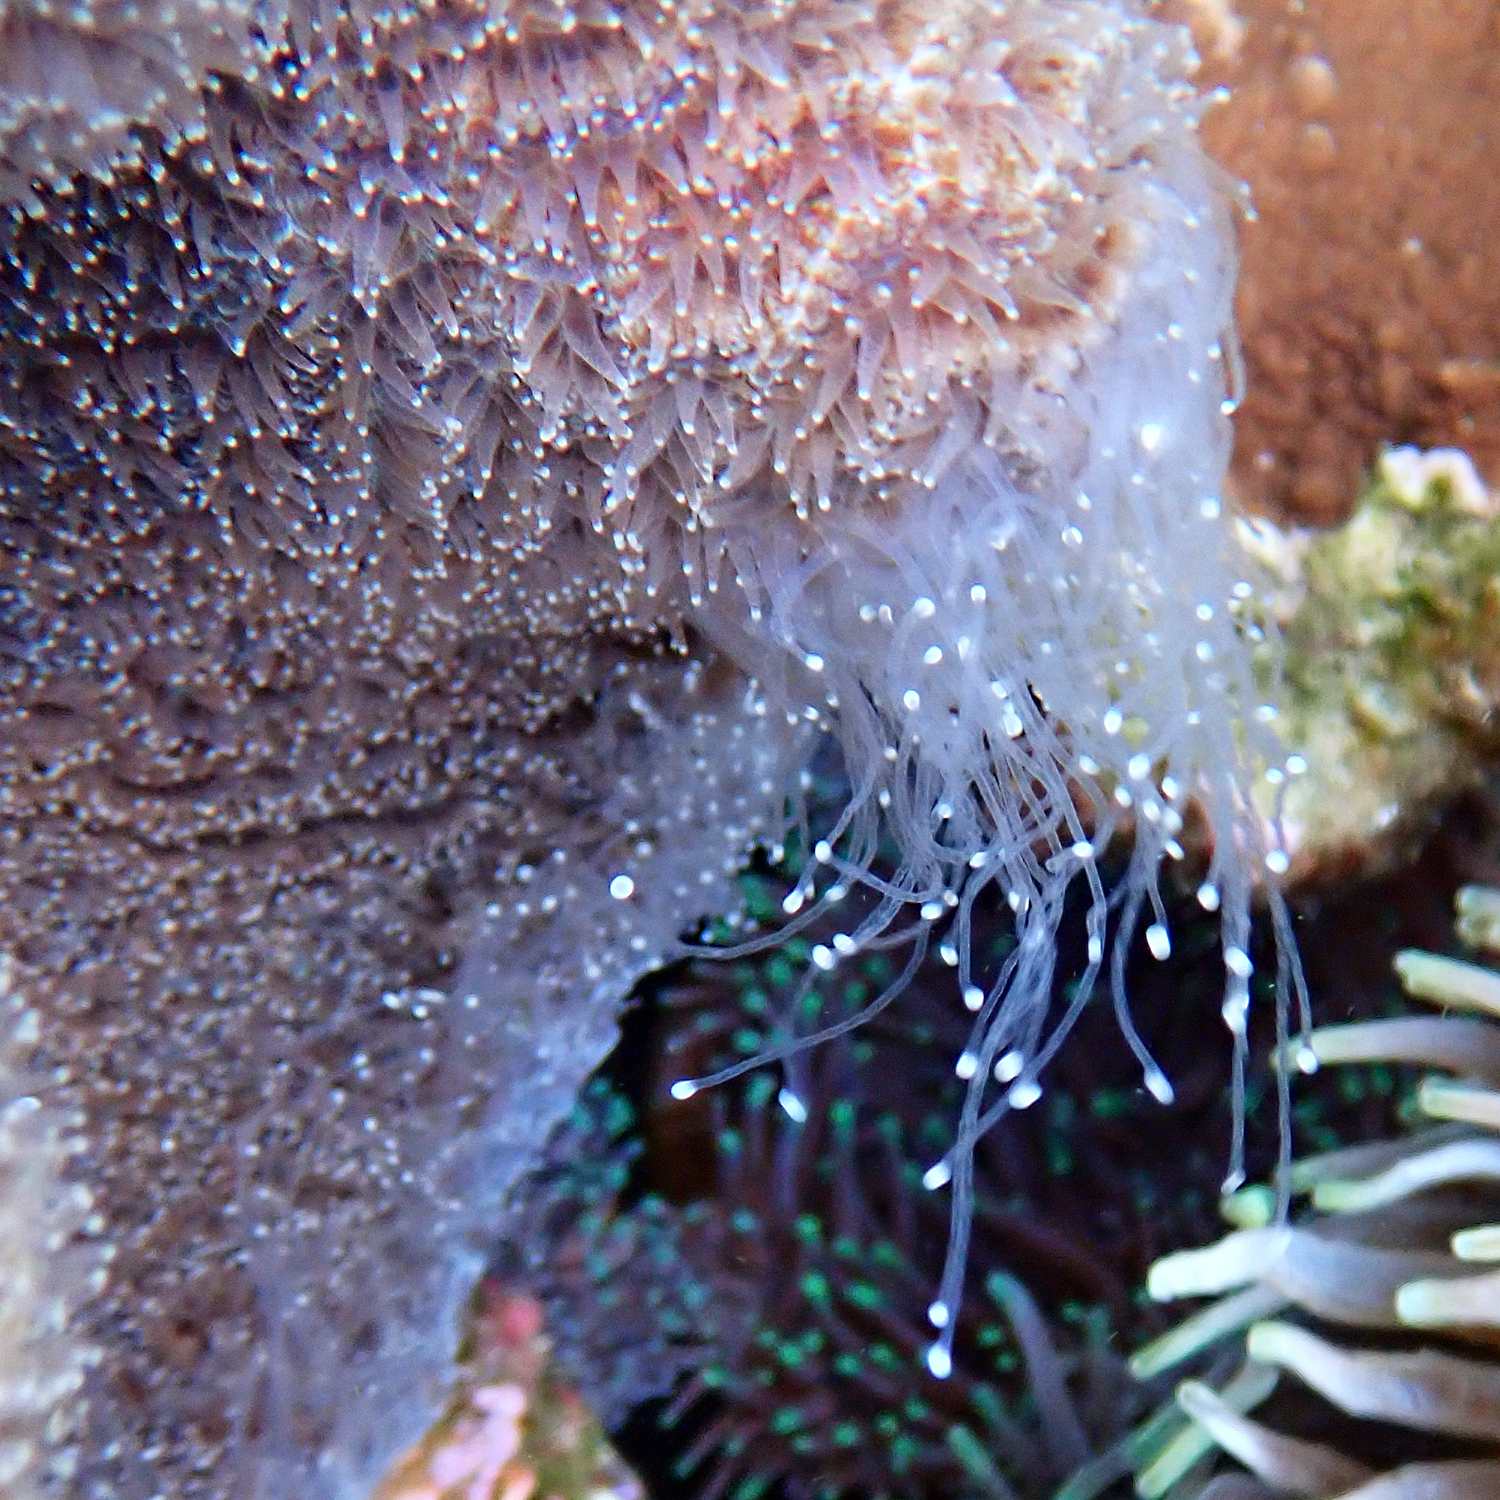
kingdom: Animalia
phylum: Cnidaria
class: Anthozoa
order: Scleractinia
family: Merulinidae
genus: Paragoniastrea
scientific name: Paragoniastrea australensis
